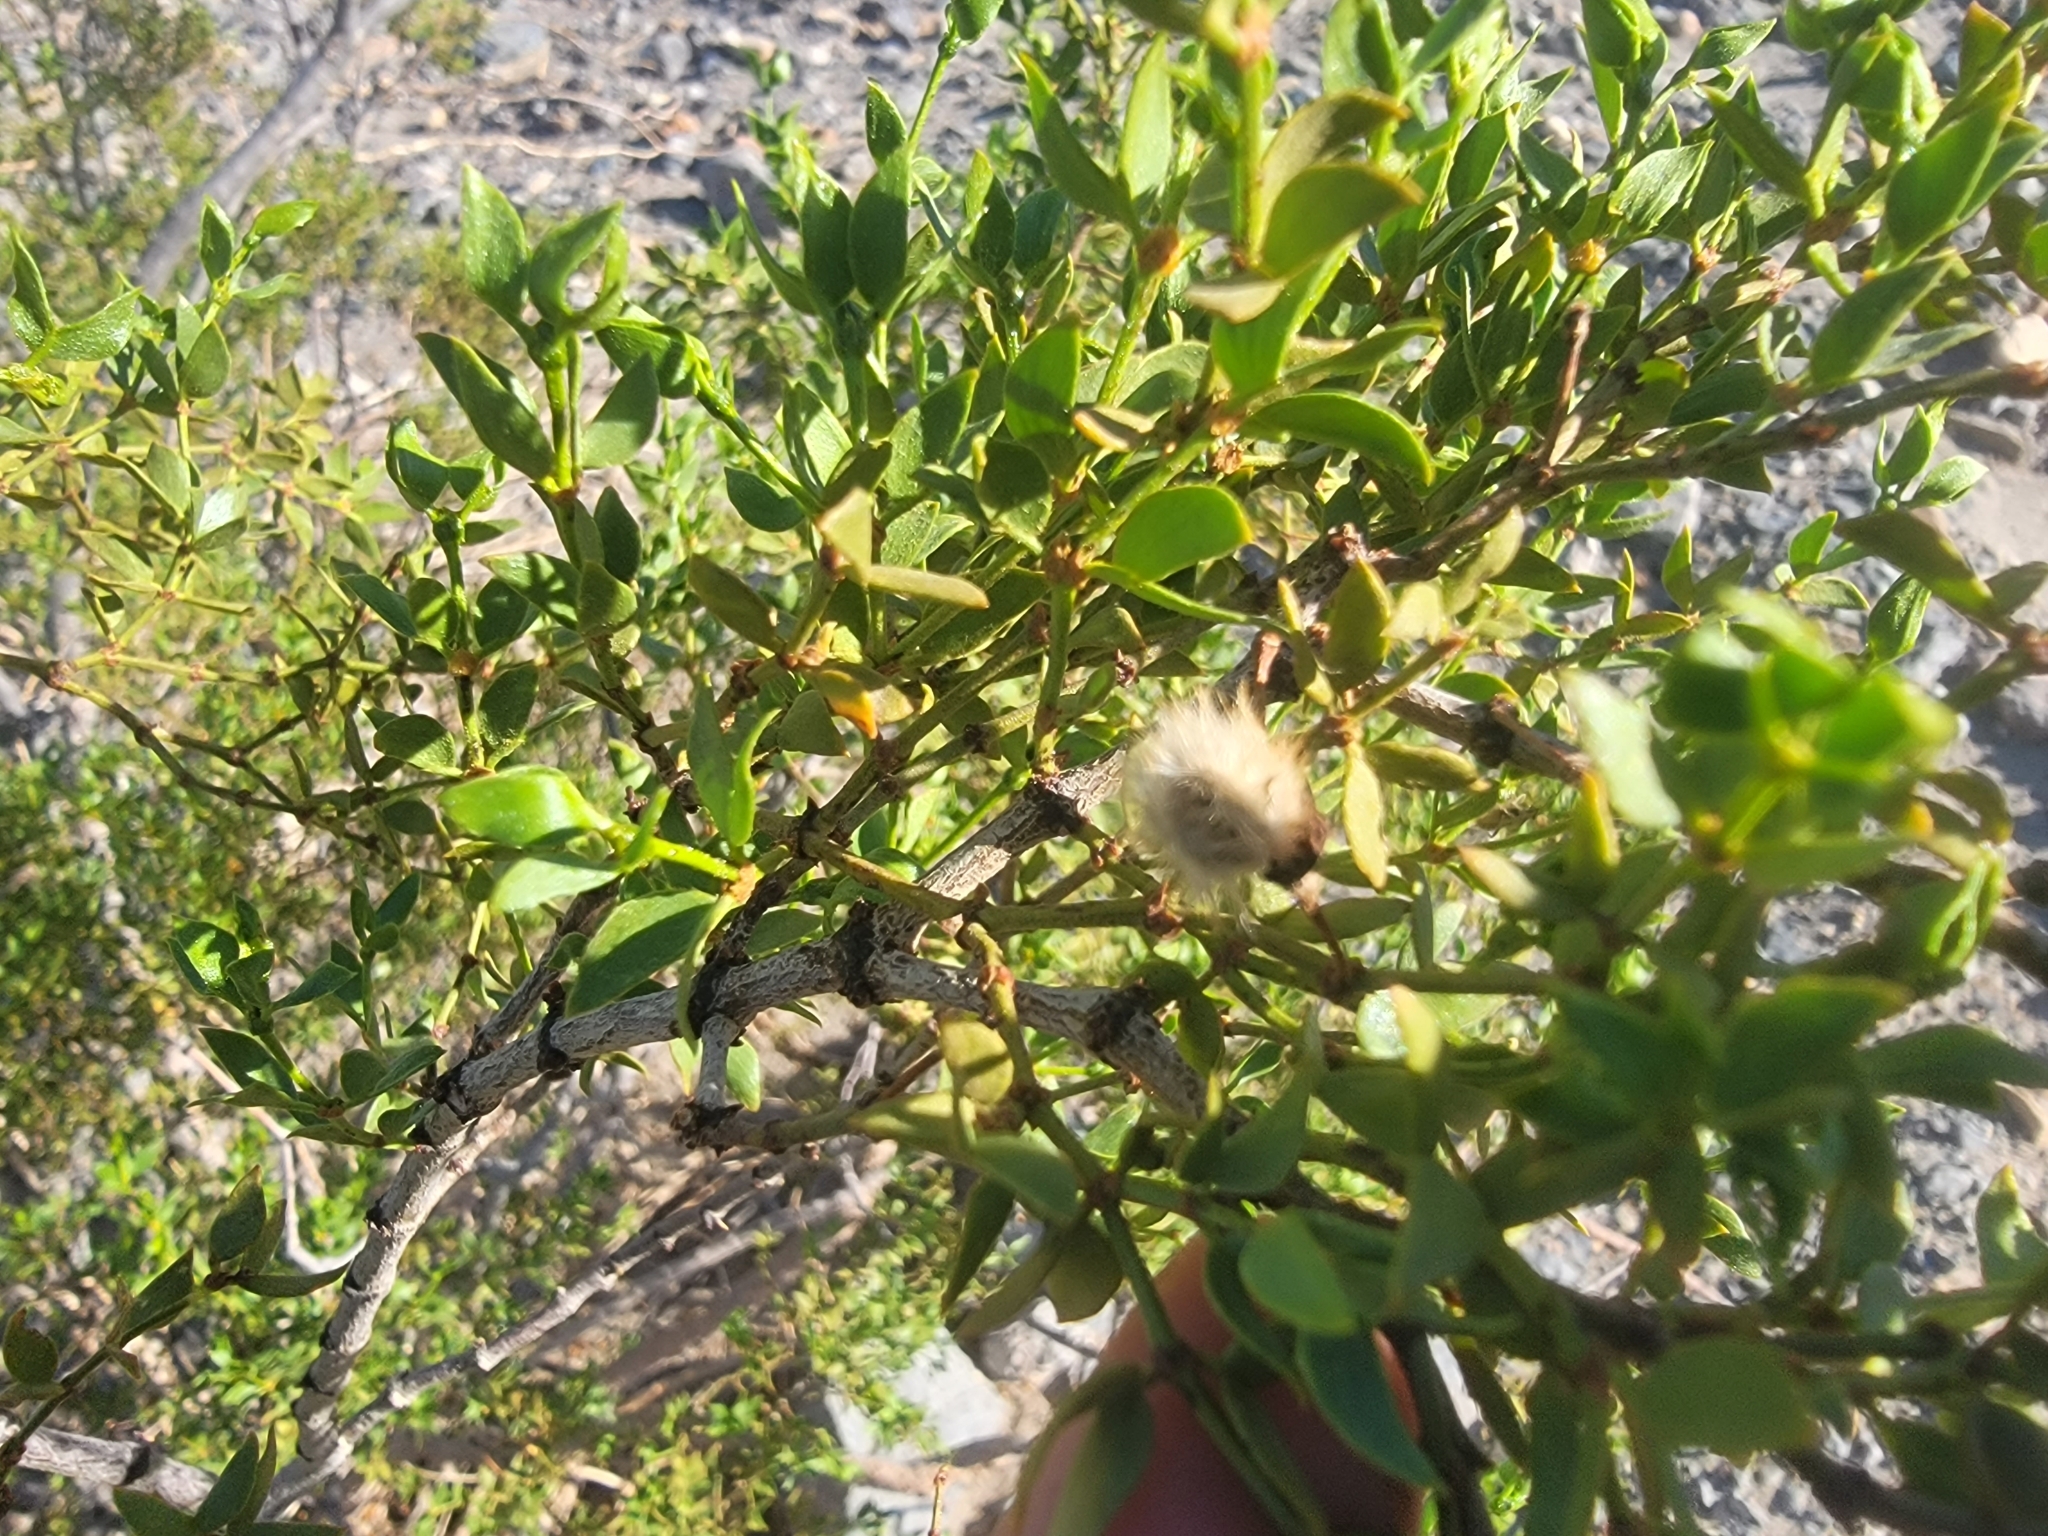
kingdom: Plantae
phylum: Tracheophyta
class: Magnoliopsida
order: Zygophyllales
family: Zygophyllaceae
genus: Larrea
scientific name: Larrea tridentata
